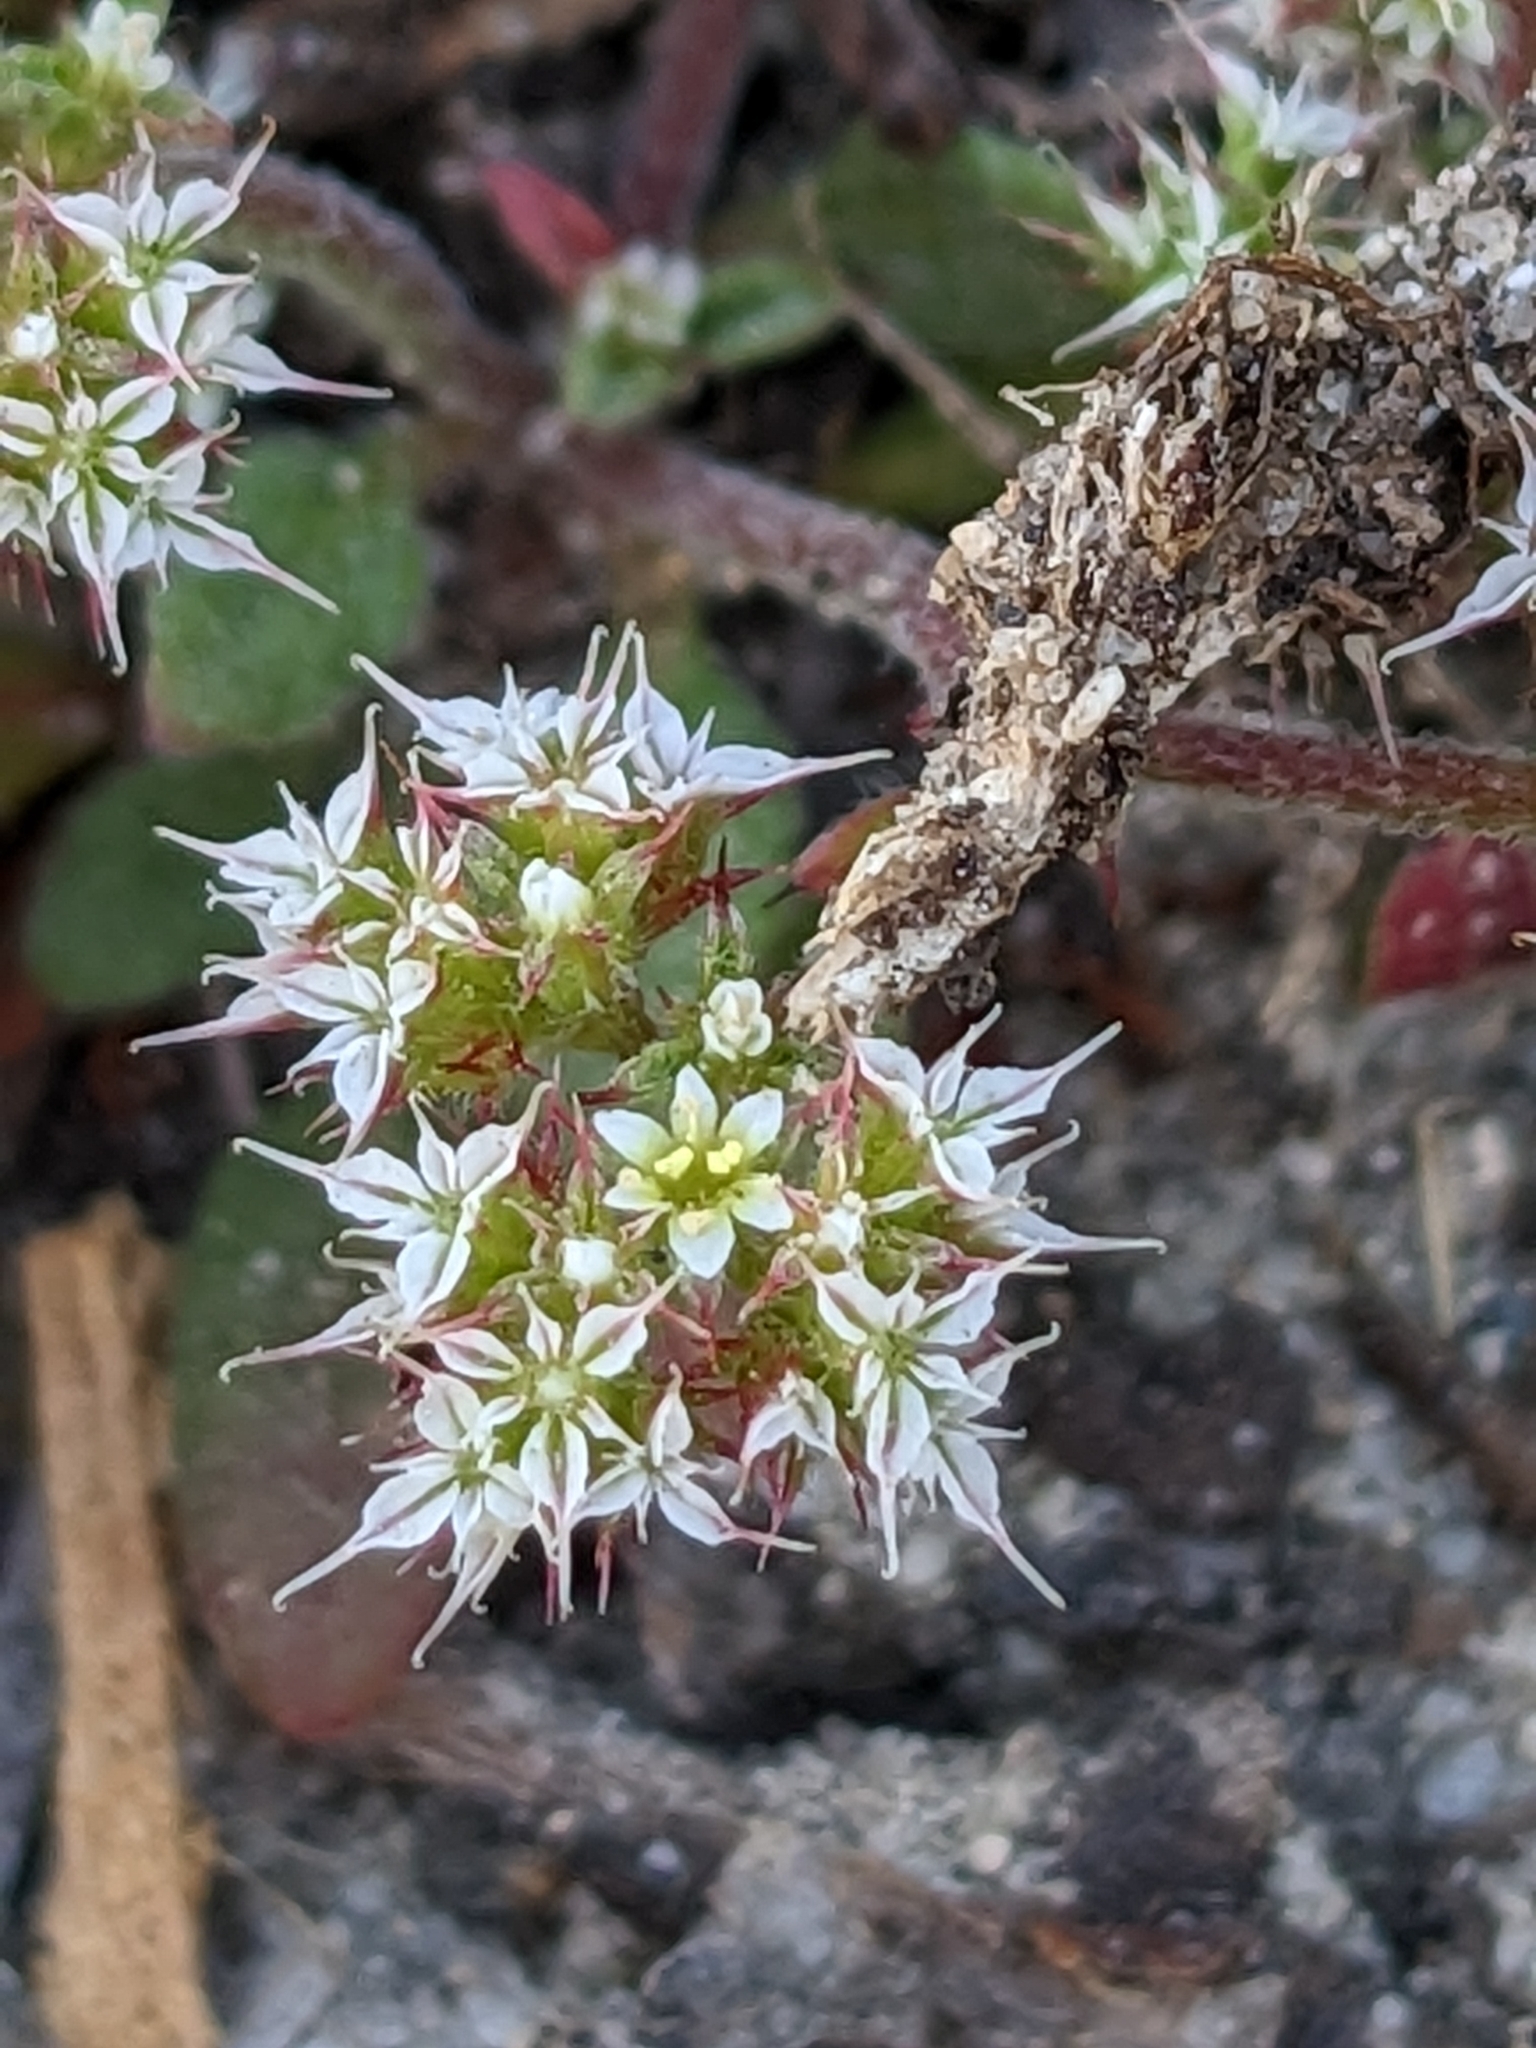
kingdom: Plantae
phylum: Tracheophyta
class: Magnoliopsida
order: Caryophyllales
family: Polygonaceae
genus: Chorizanthe
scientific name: Chorizanthe diffusa
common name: Diffuse spineflower
